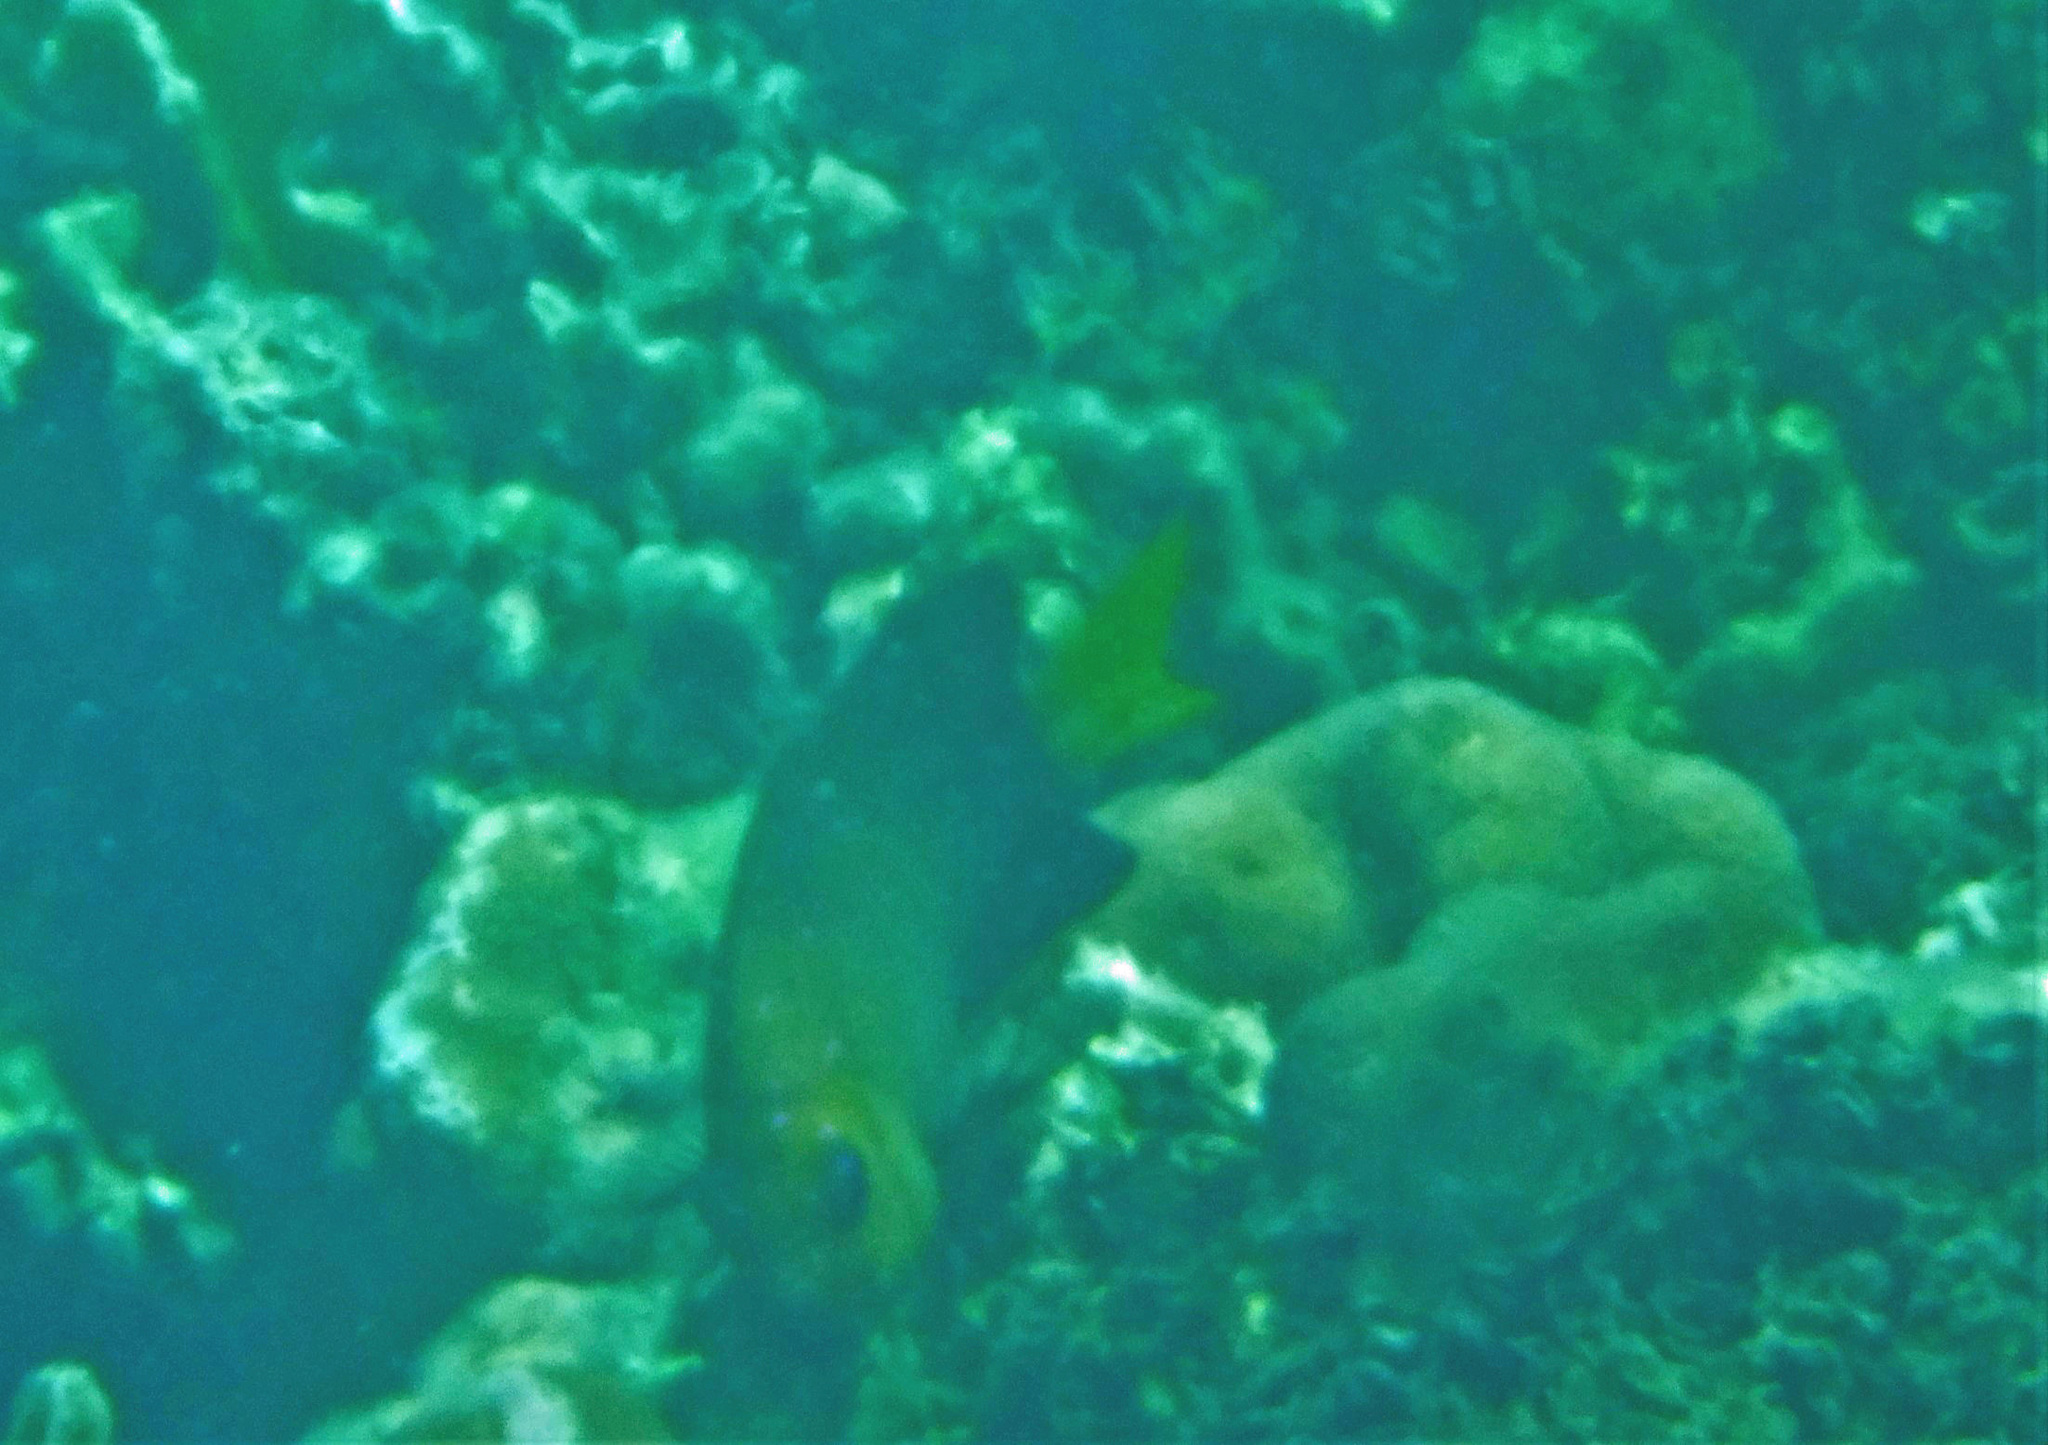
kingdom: Animalia
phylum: Chordata
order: Perciformes
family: Pomacentridae
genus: Microspathodon
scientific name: Microspathodon chrysurus
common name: Yellowtail damselfish
